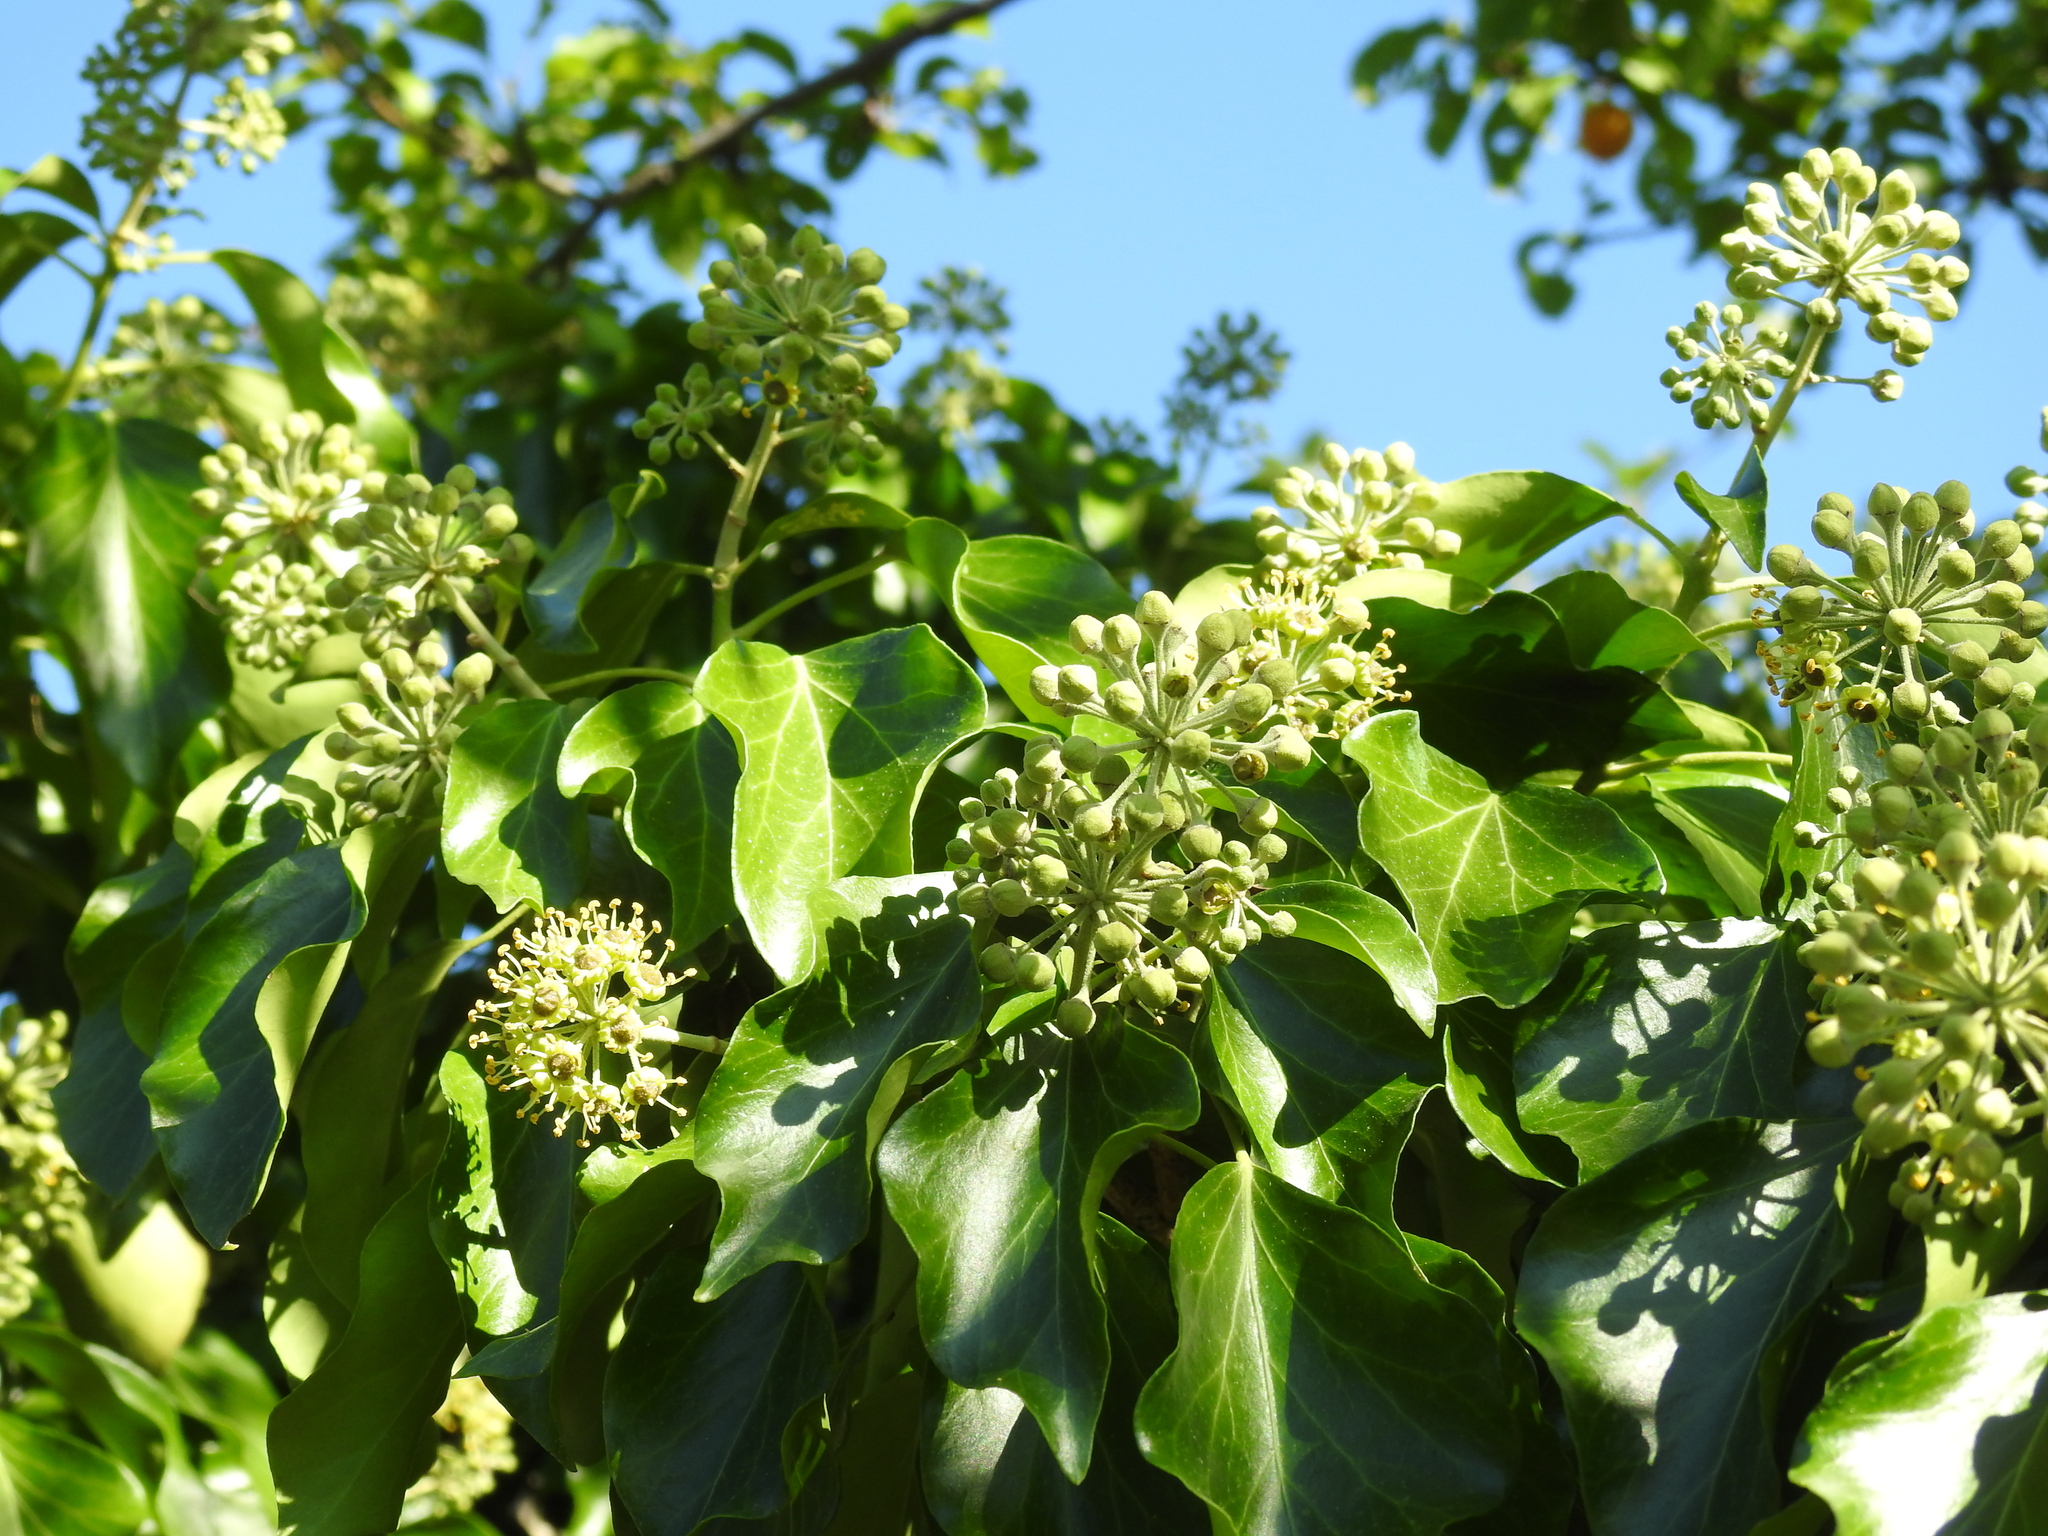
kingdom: Plantae
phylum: Tracheophyta
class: Magnoliopsida
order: Apiales
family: Araliaceae
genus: Hedera
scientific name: Hedera helix
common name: Ivy
